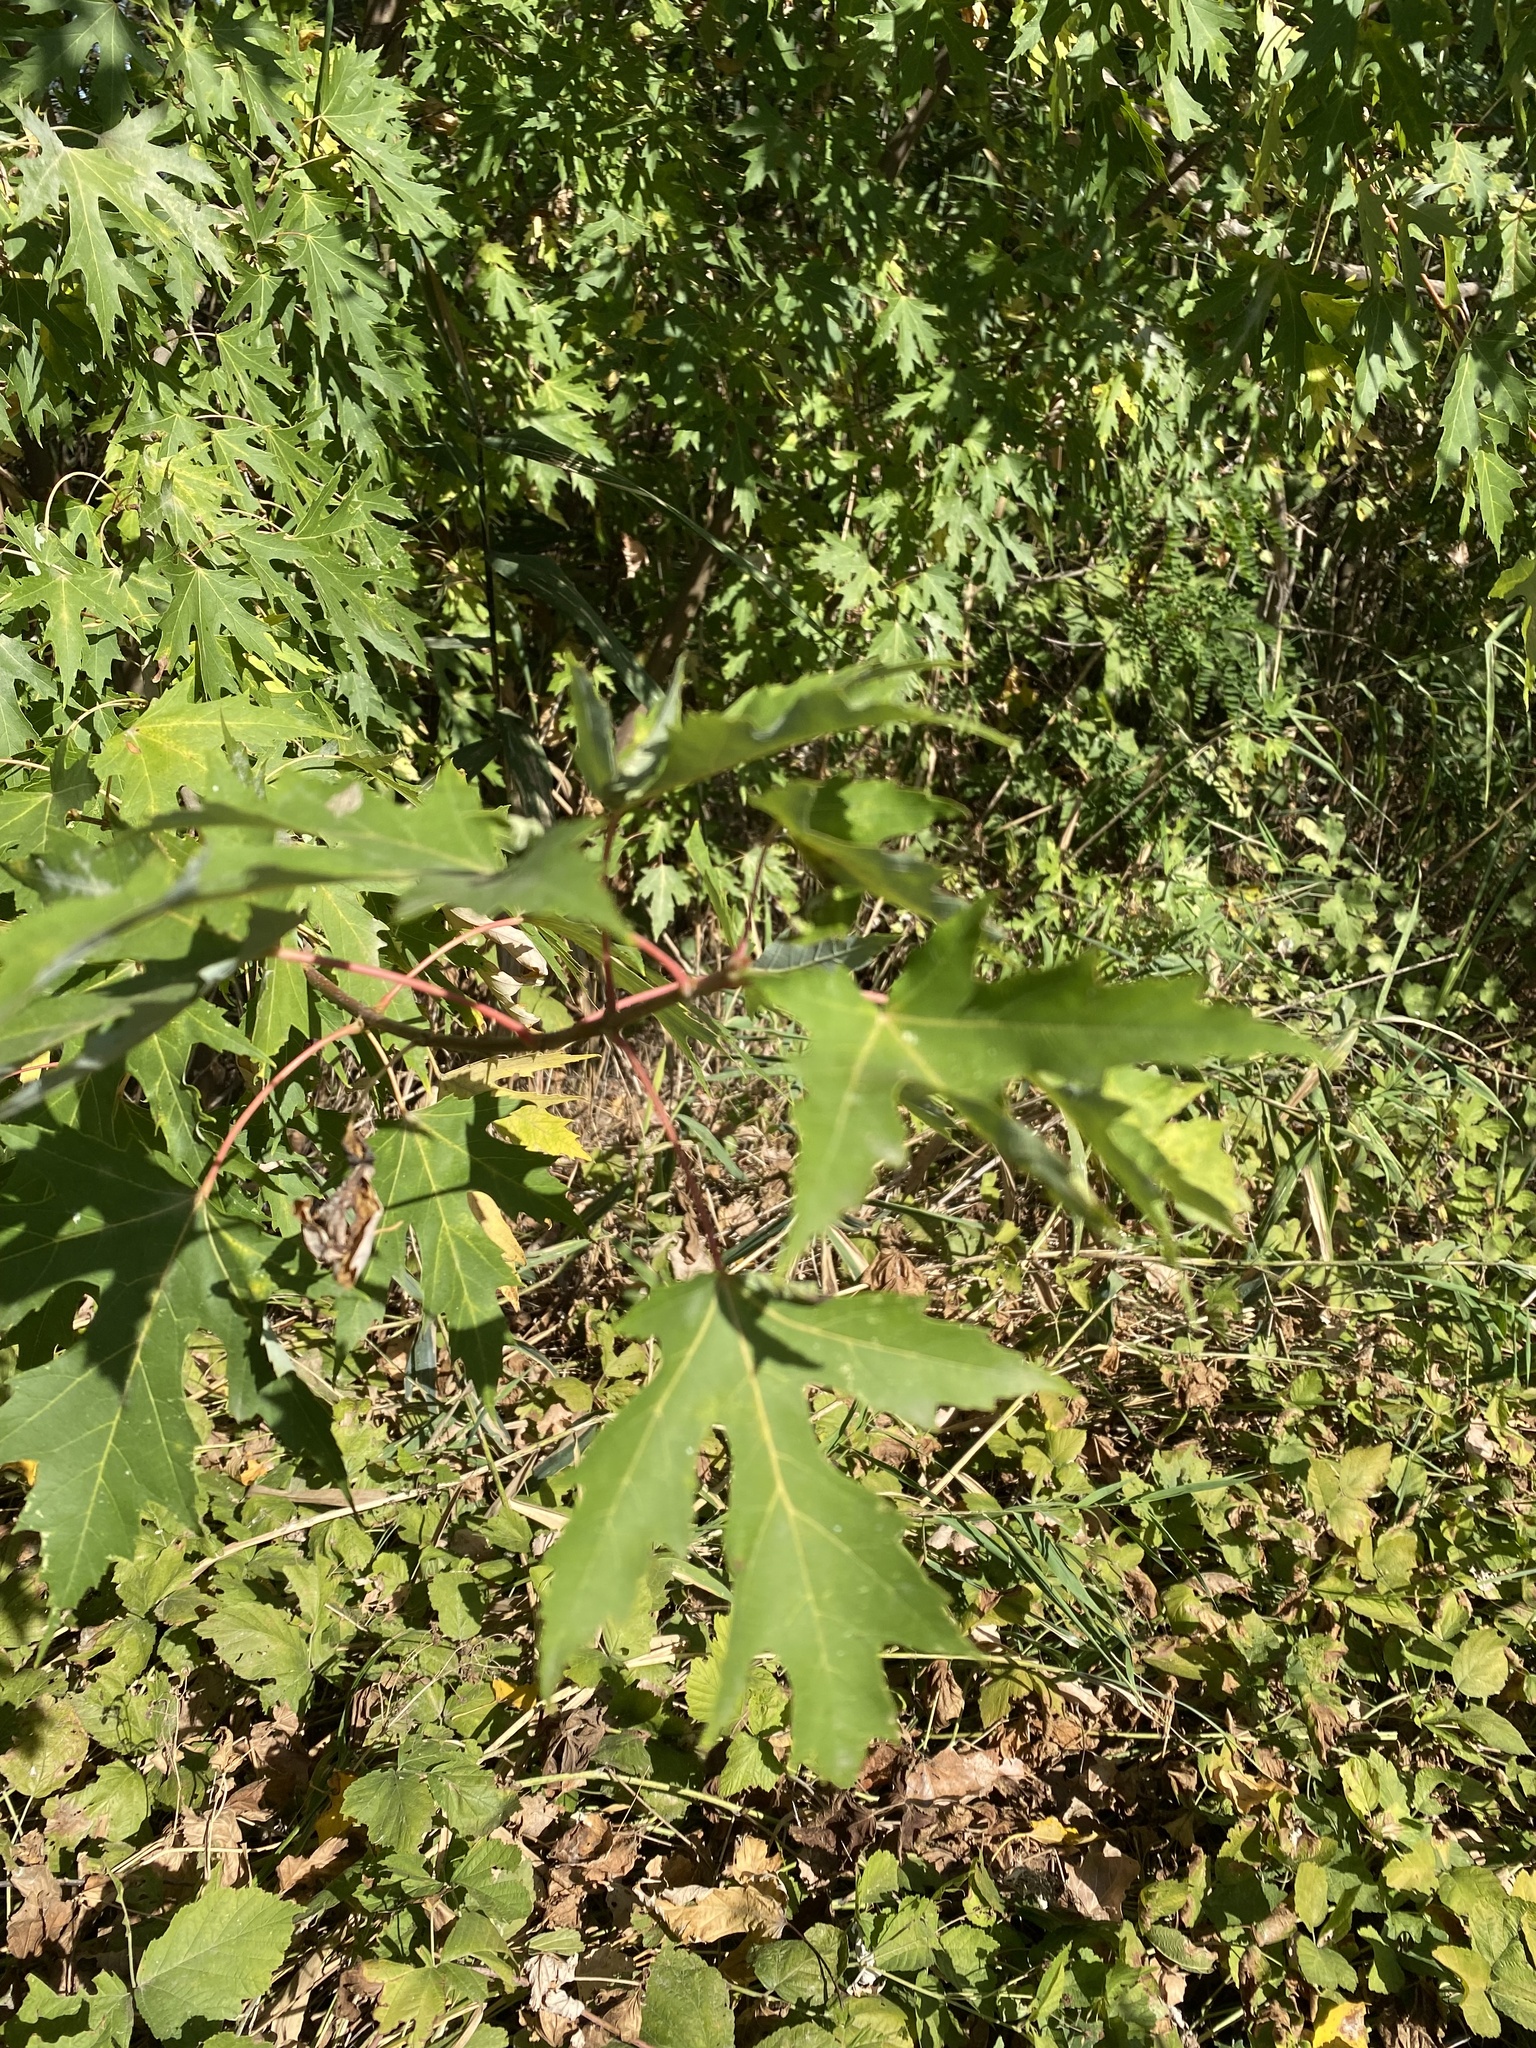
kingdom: Plantae
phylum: Tracheophyta
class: Magnoliopsida
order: Sapindales
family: Sapindaceae
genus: Acer
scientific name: Acer saccharinum
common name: Silver maple
